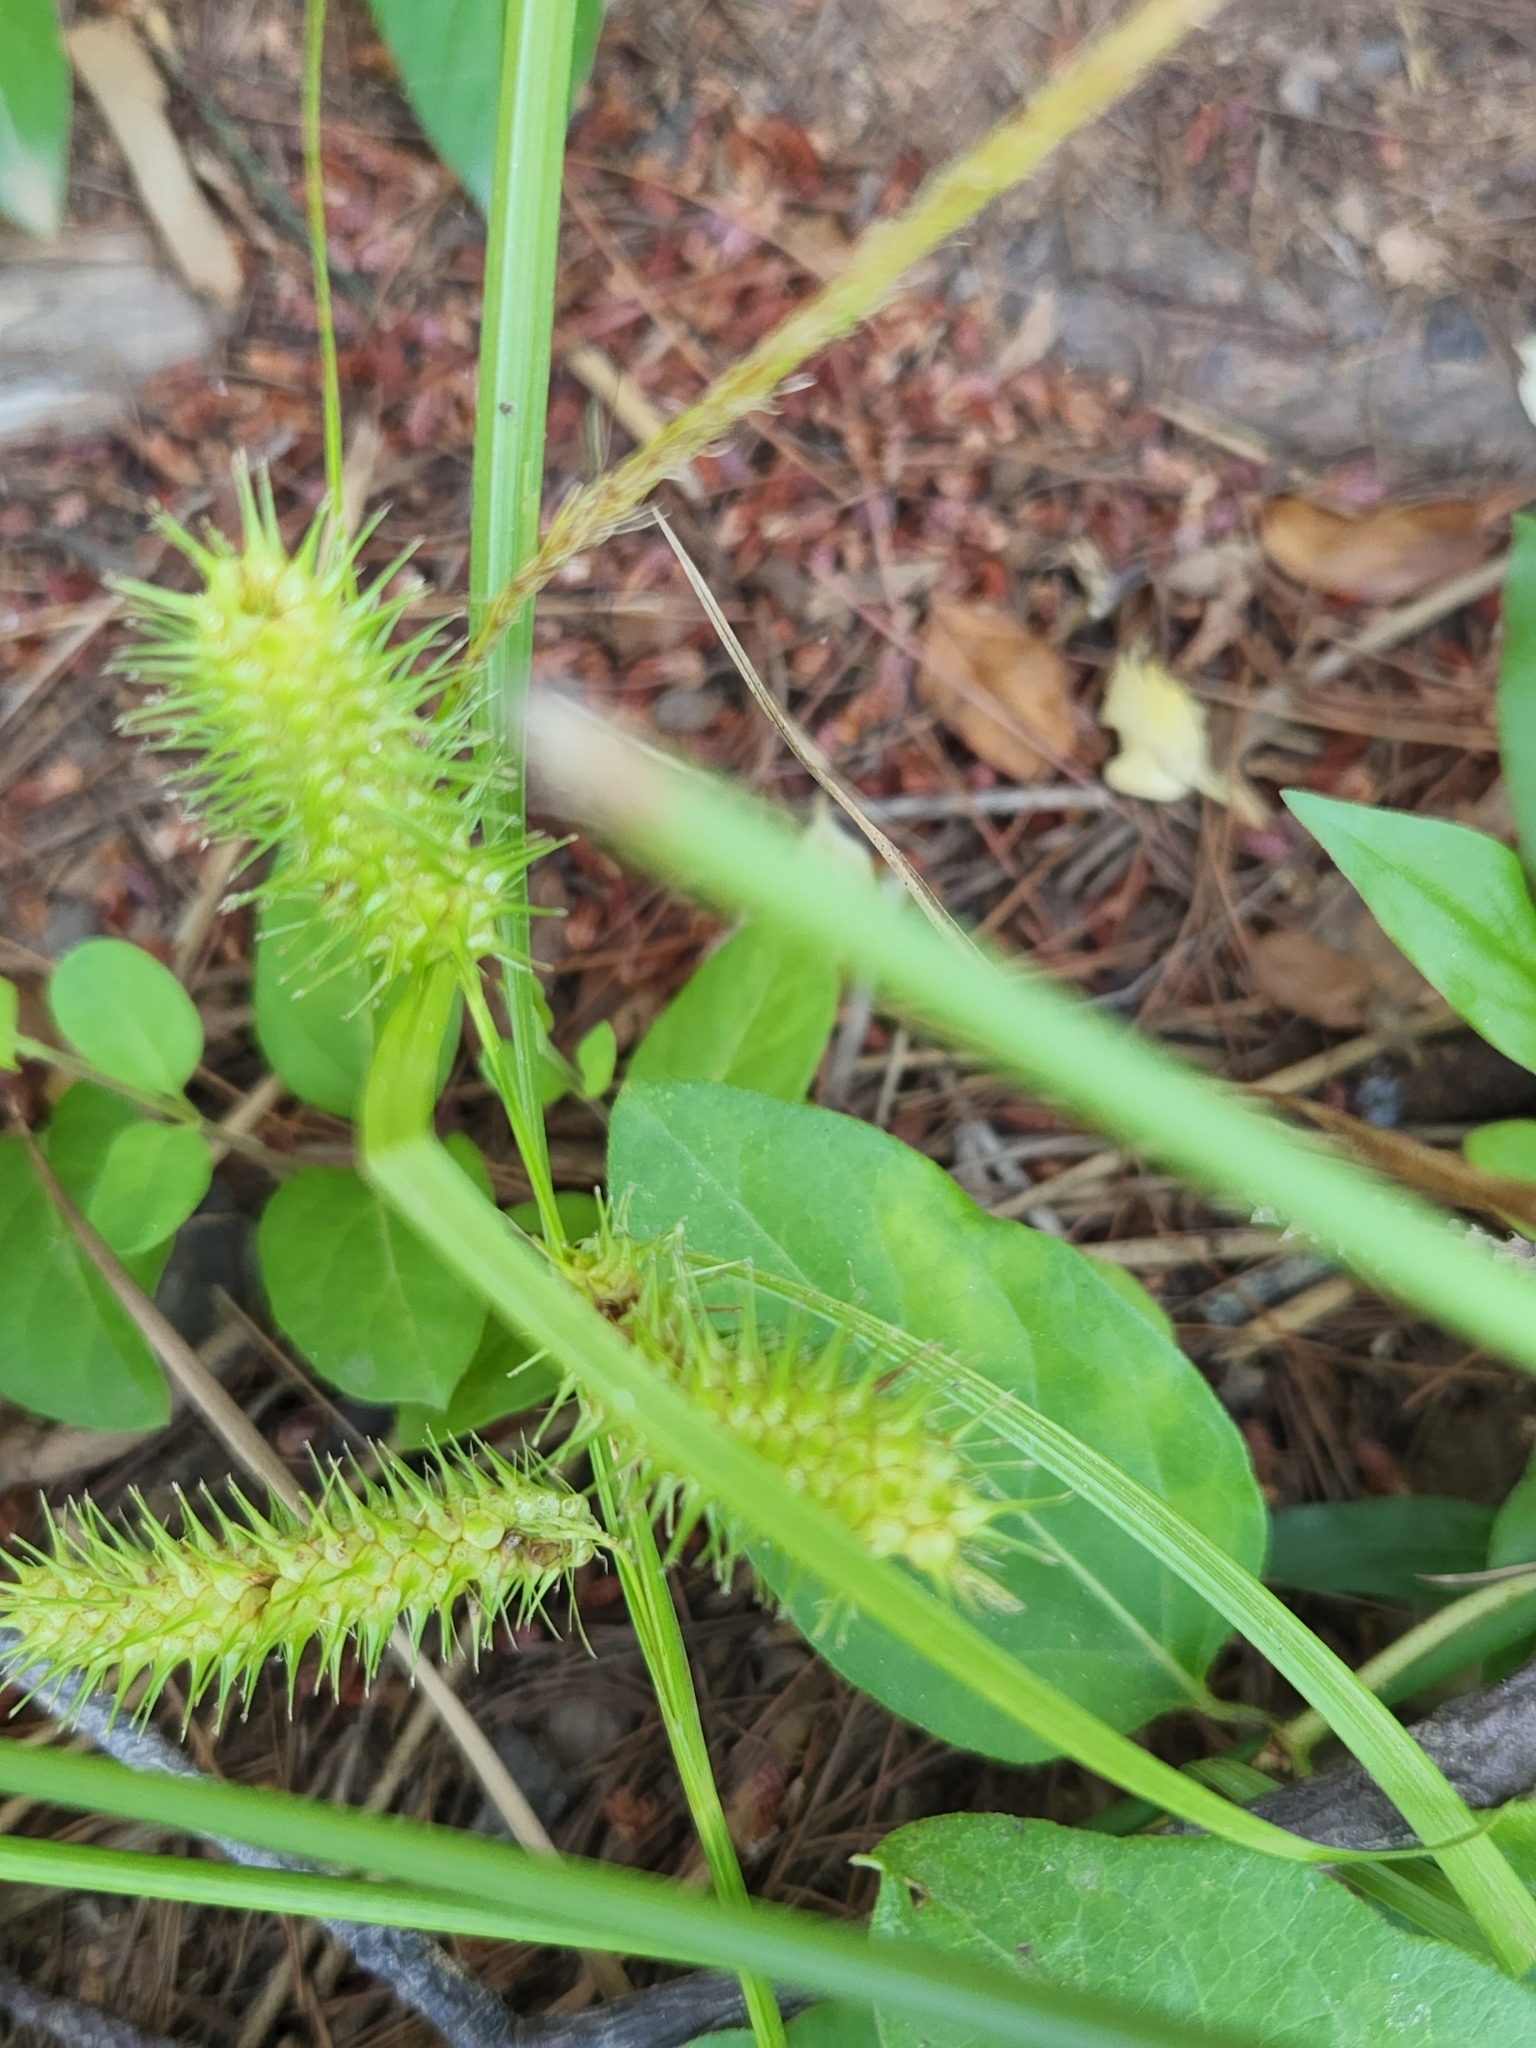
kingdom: Plantae
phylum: Tracheophyta
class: Liliopsida
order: Poales
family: Cyperaceae
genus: Carex
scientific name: Carex lurida
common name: Sallow sedge
